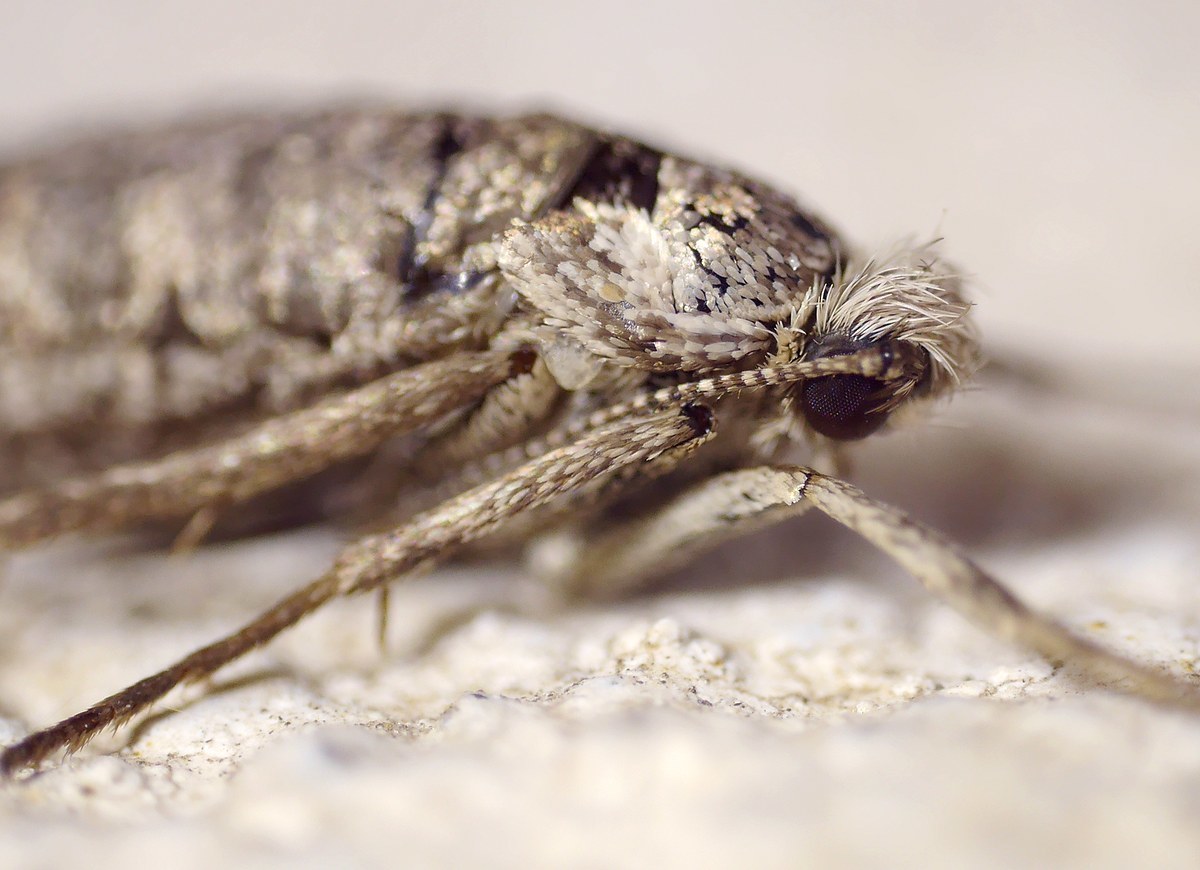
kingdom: Animalia
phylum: Arthropoda
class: Insecta
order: Lepidoptera
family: Eriocottidae
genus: Deuterotinea
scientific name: Deuterotinea casanella
